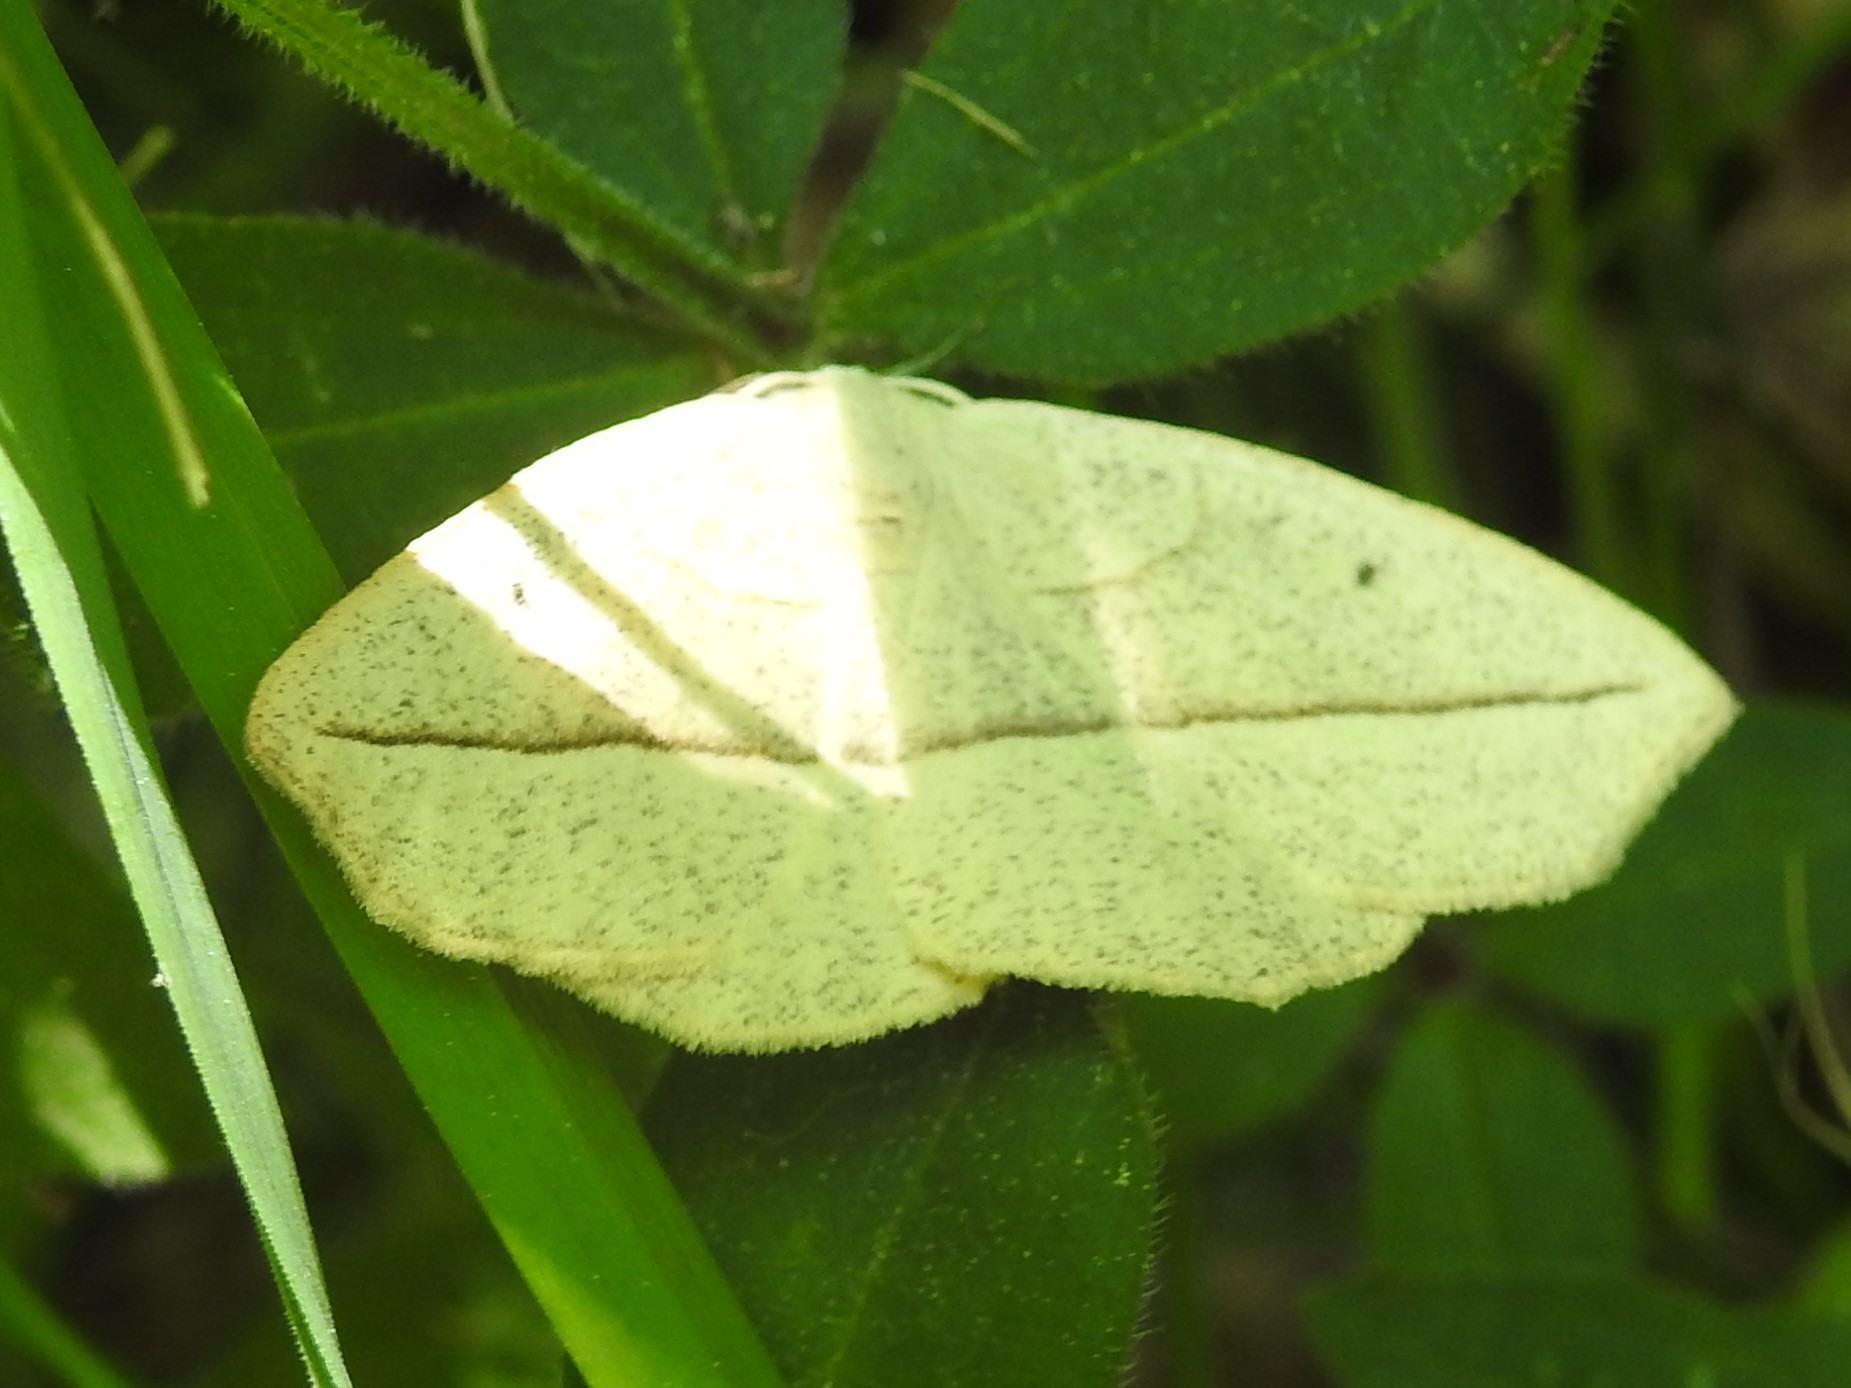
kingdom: Animalia
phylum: Arthropoda
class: Insecta
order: Lepidoptera
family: Geometridae
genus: Eusarca
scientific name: Eusarca confusaria
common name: Confused eusarca
